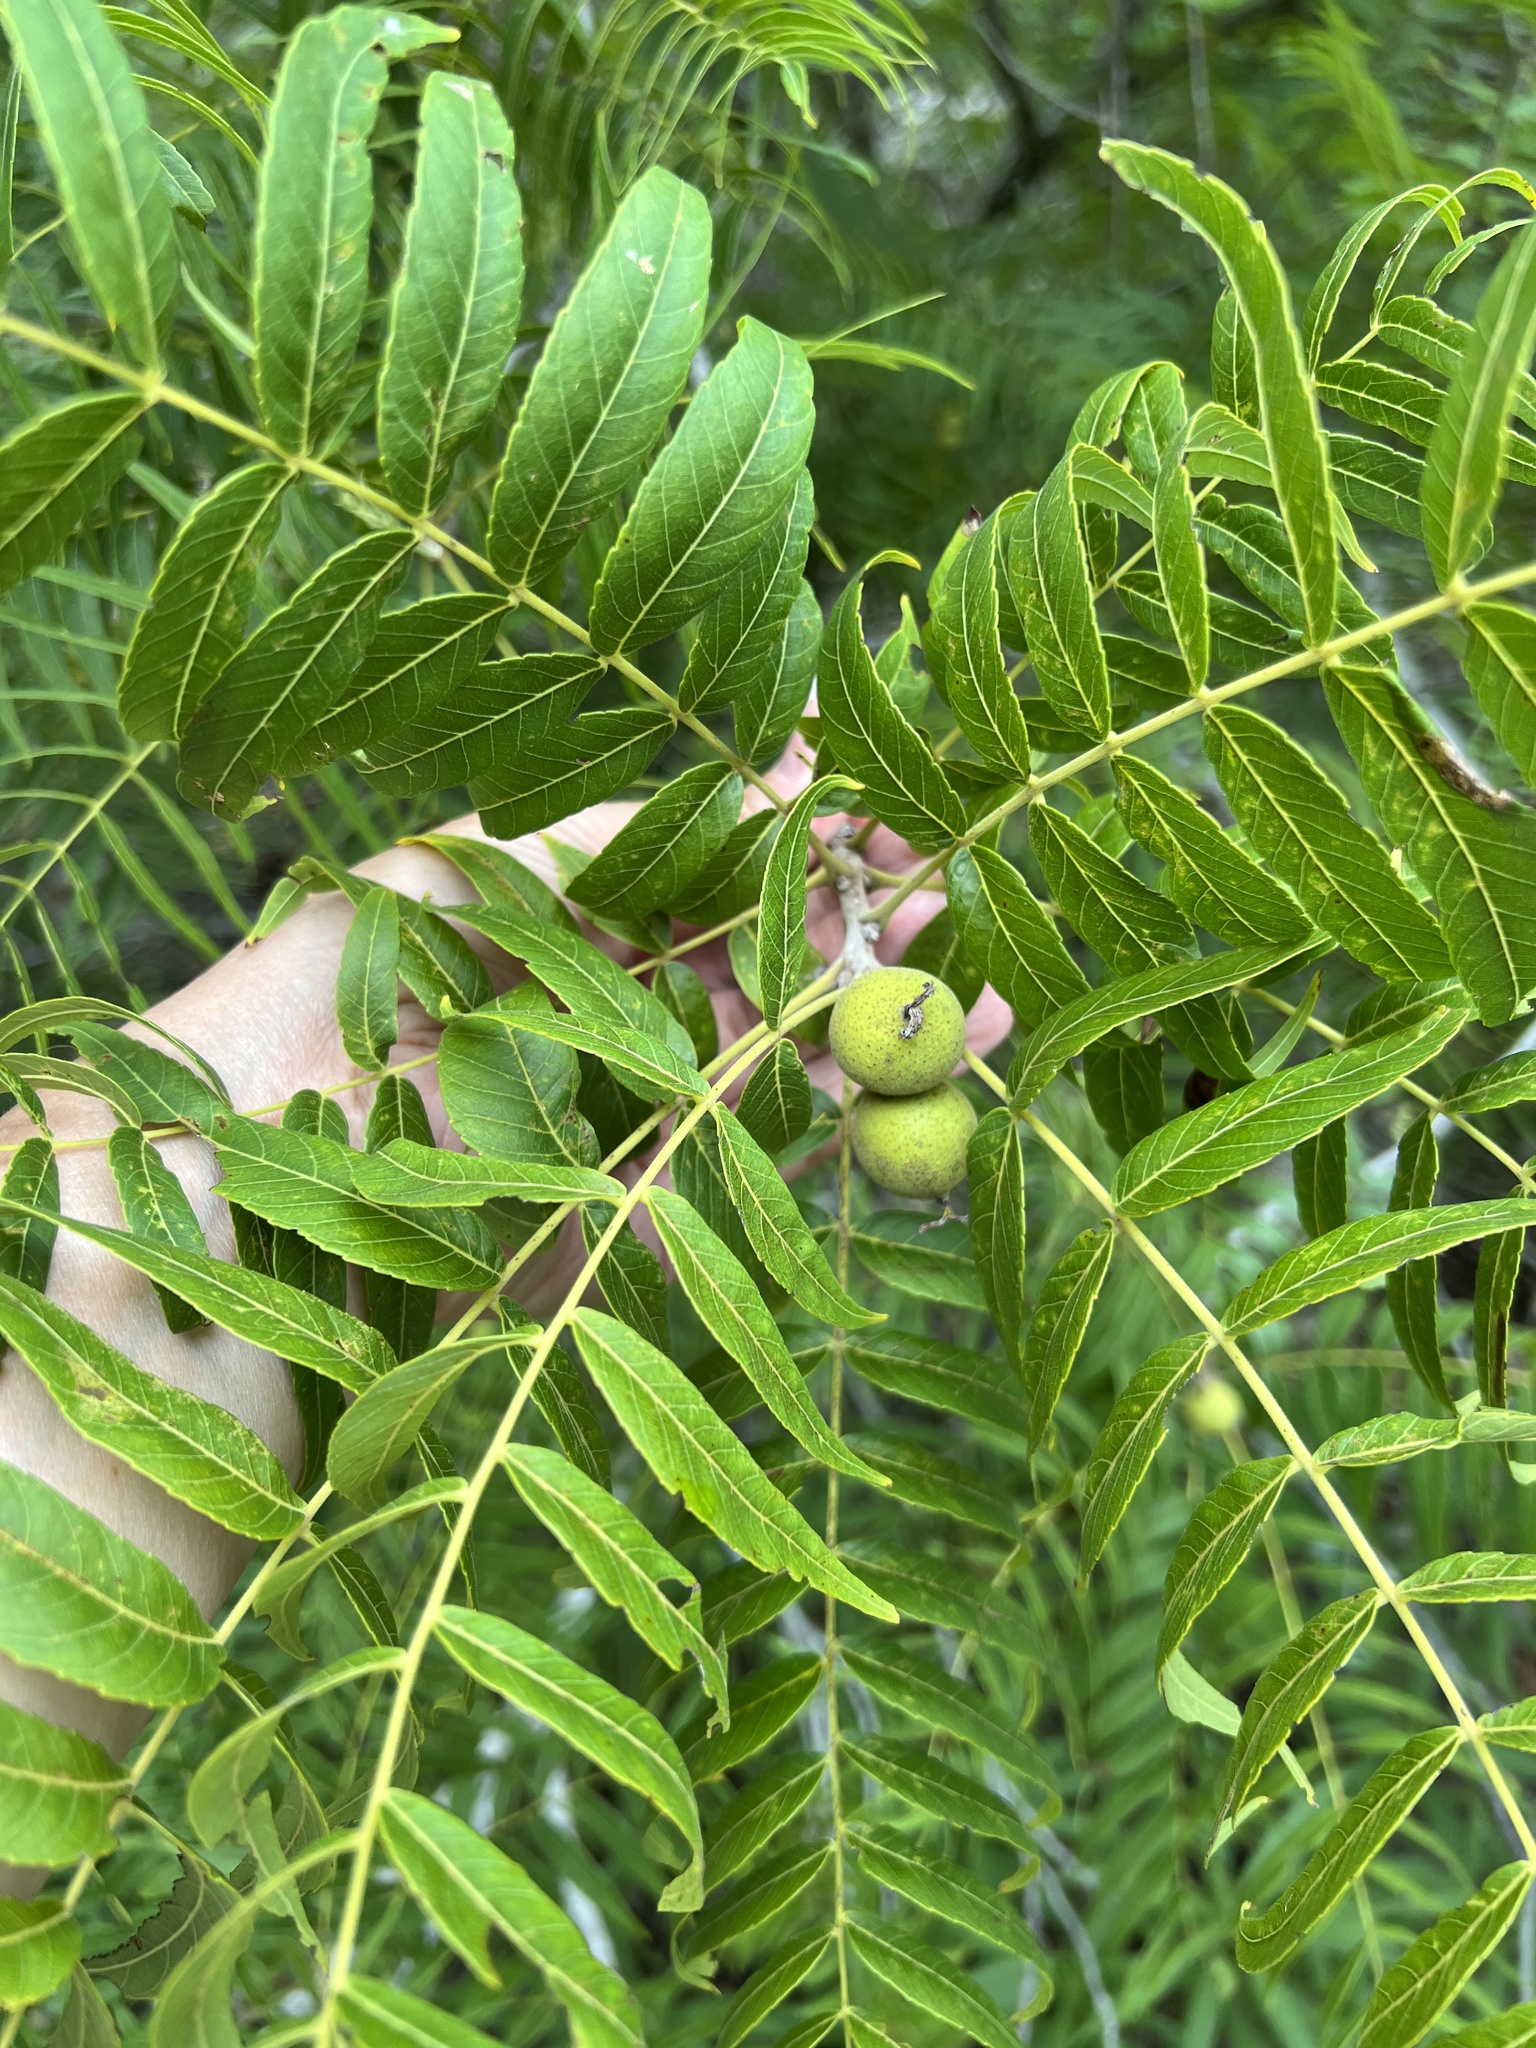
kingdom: Plantae
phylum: Tracheophyta
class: Magnoliopsida
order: Fagales
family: Juglandaceae
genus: Juglans
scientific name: Juglans microcarpa
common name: Texas walnut
